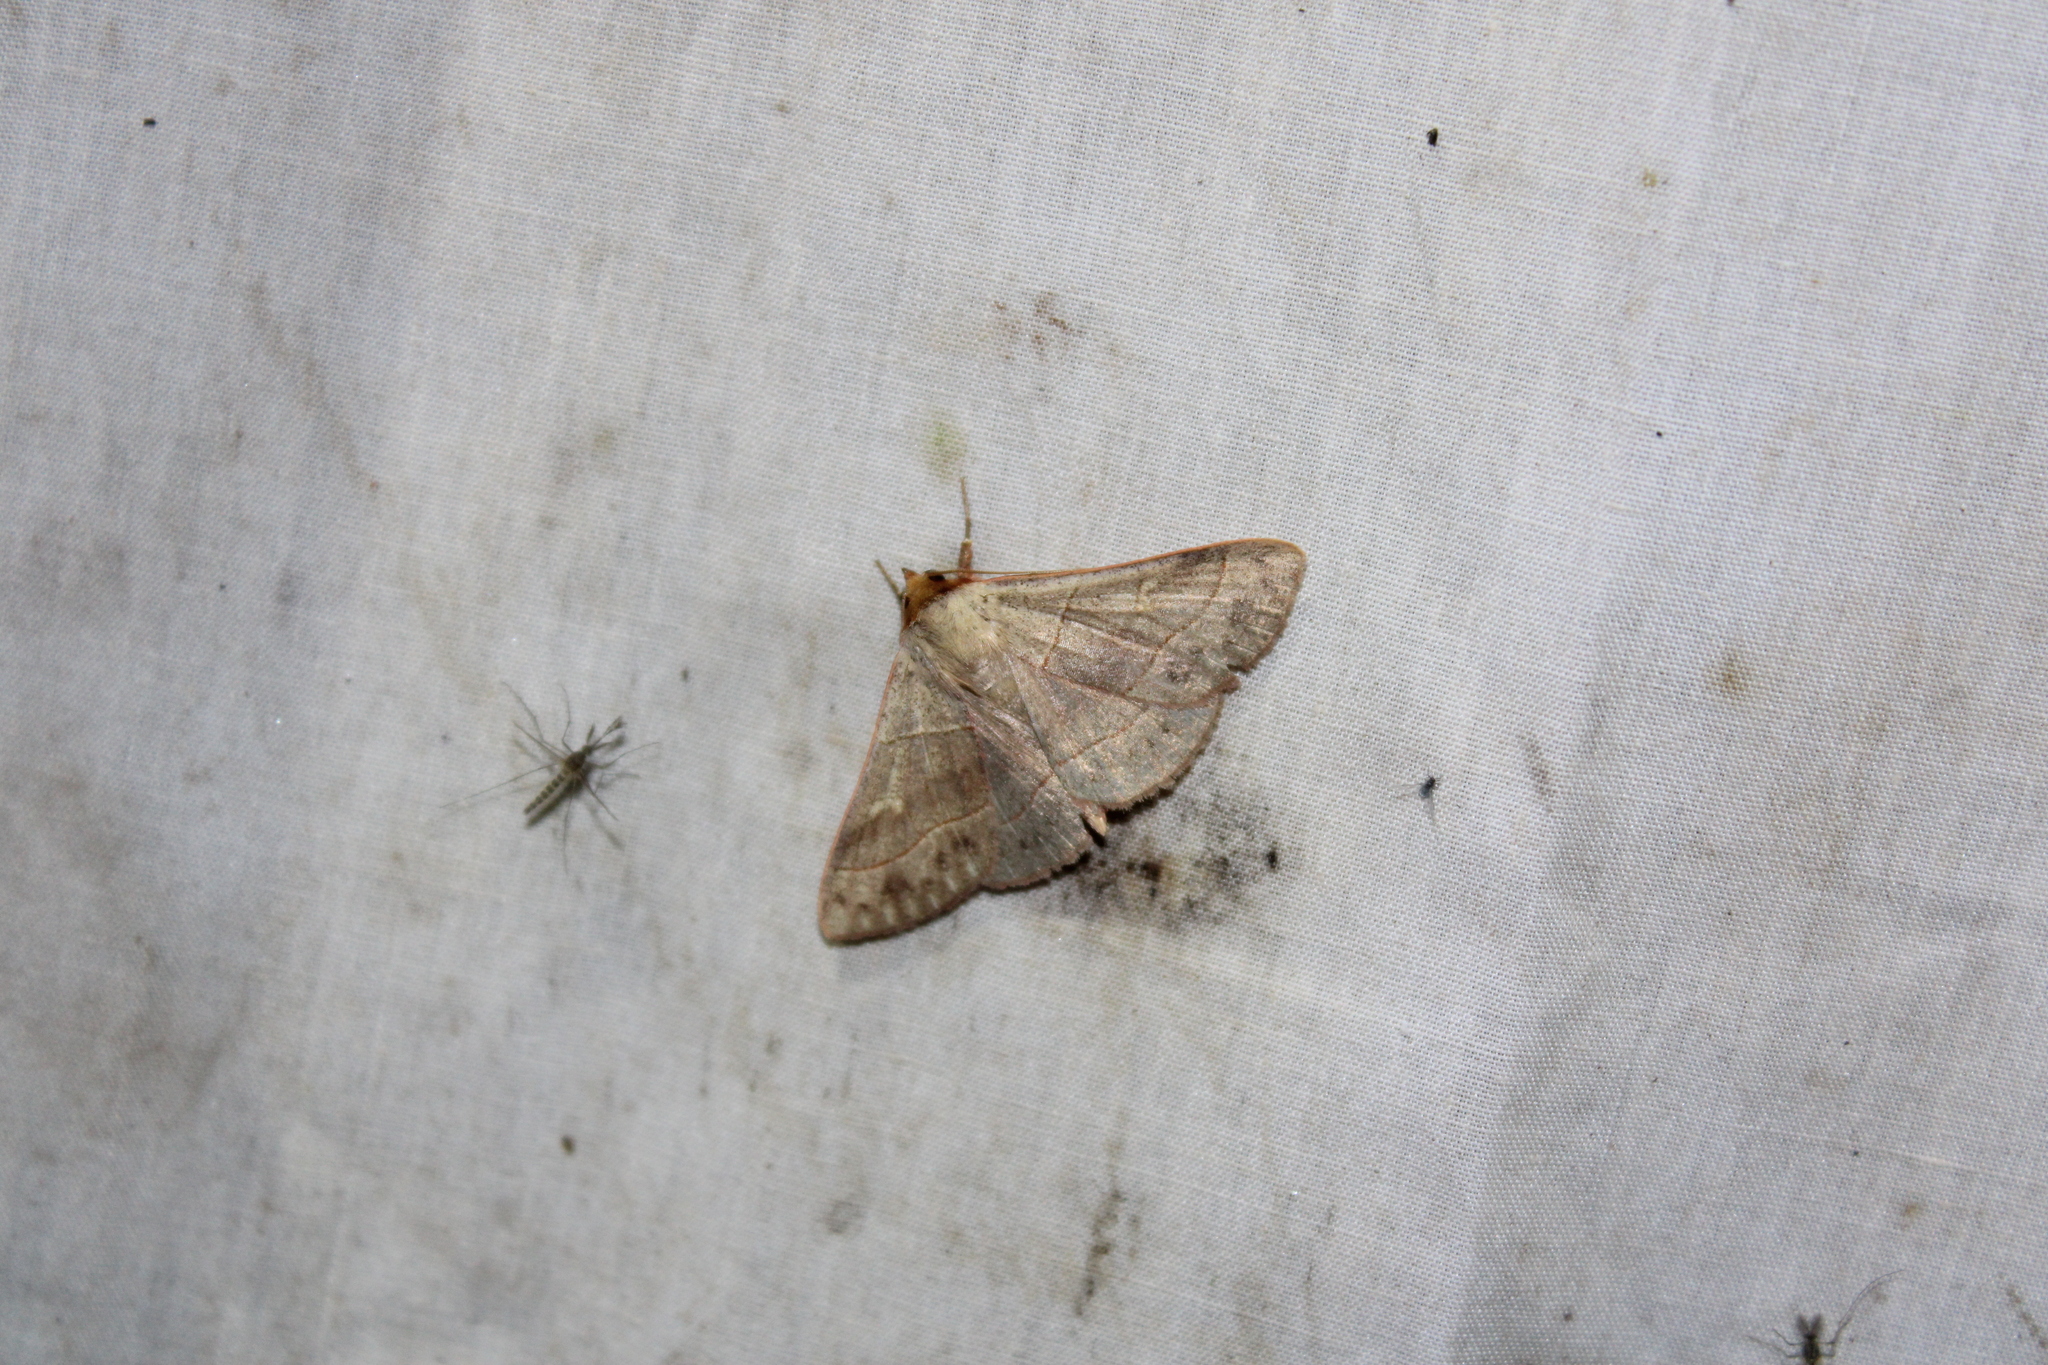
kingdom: Animalia
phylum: Arthropoda
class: Insecta
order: Lepidoptera
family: Erebidae
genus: Panopoda
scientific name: Panopoda rufimargo
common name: Red-lined panopoda moth
